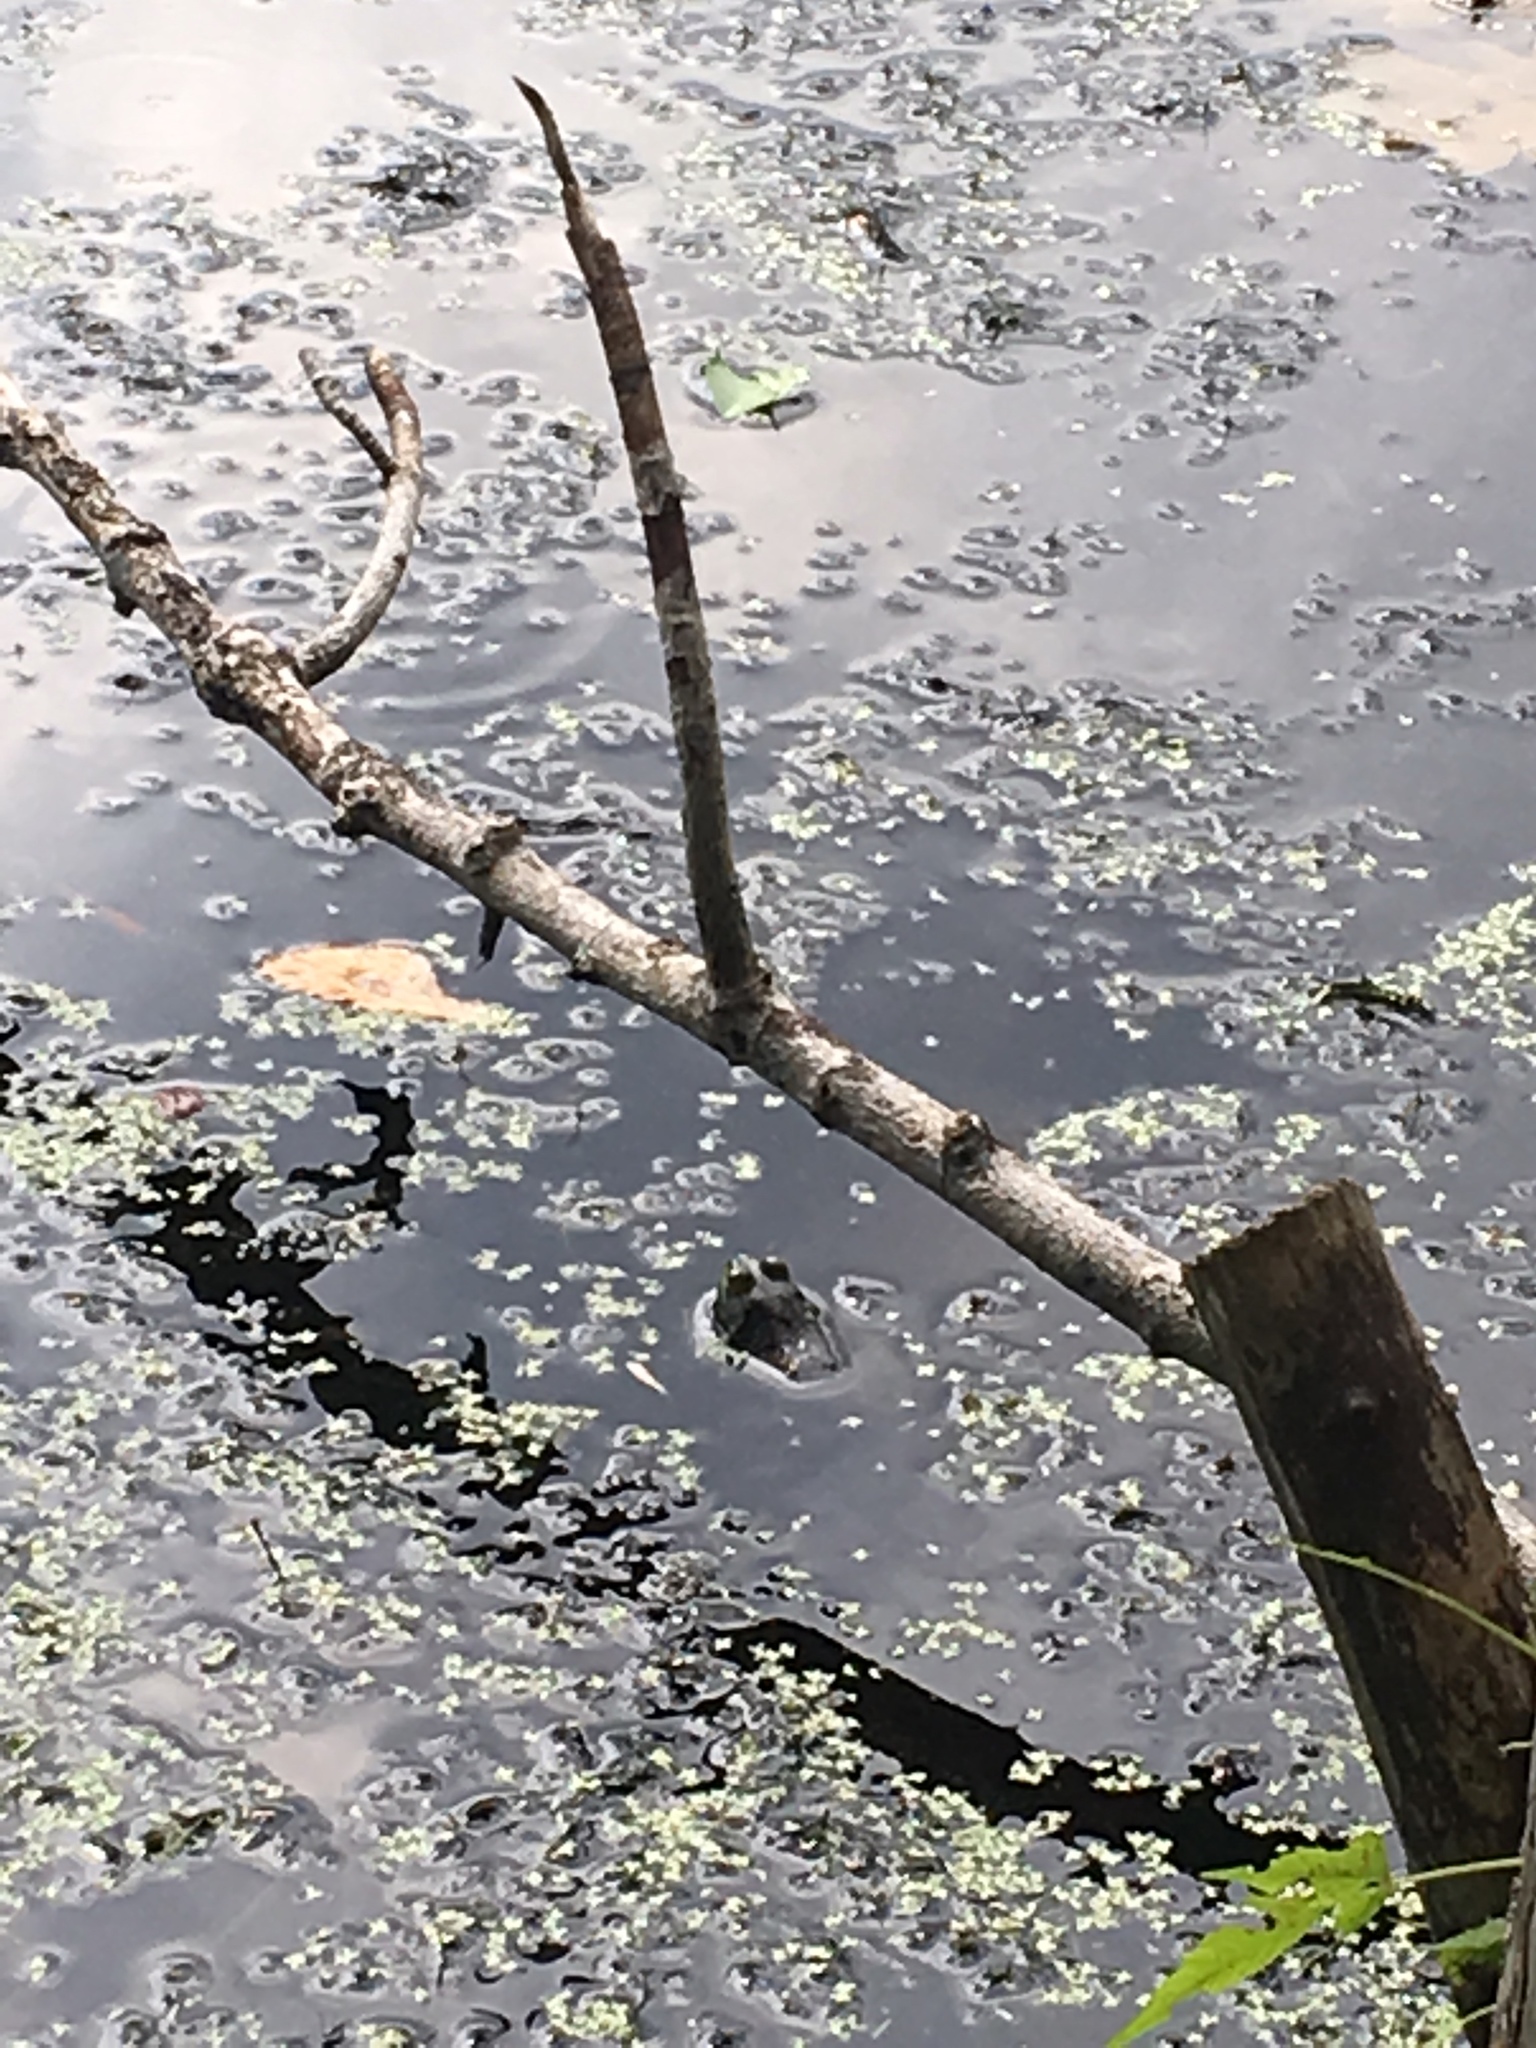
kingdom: Animalia
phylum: Chordata
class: Amphibia
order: Anura
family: Ranidae
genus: Lithobates
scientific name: Lithobates catesbeianus
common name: American bullfrog
